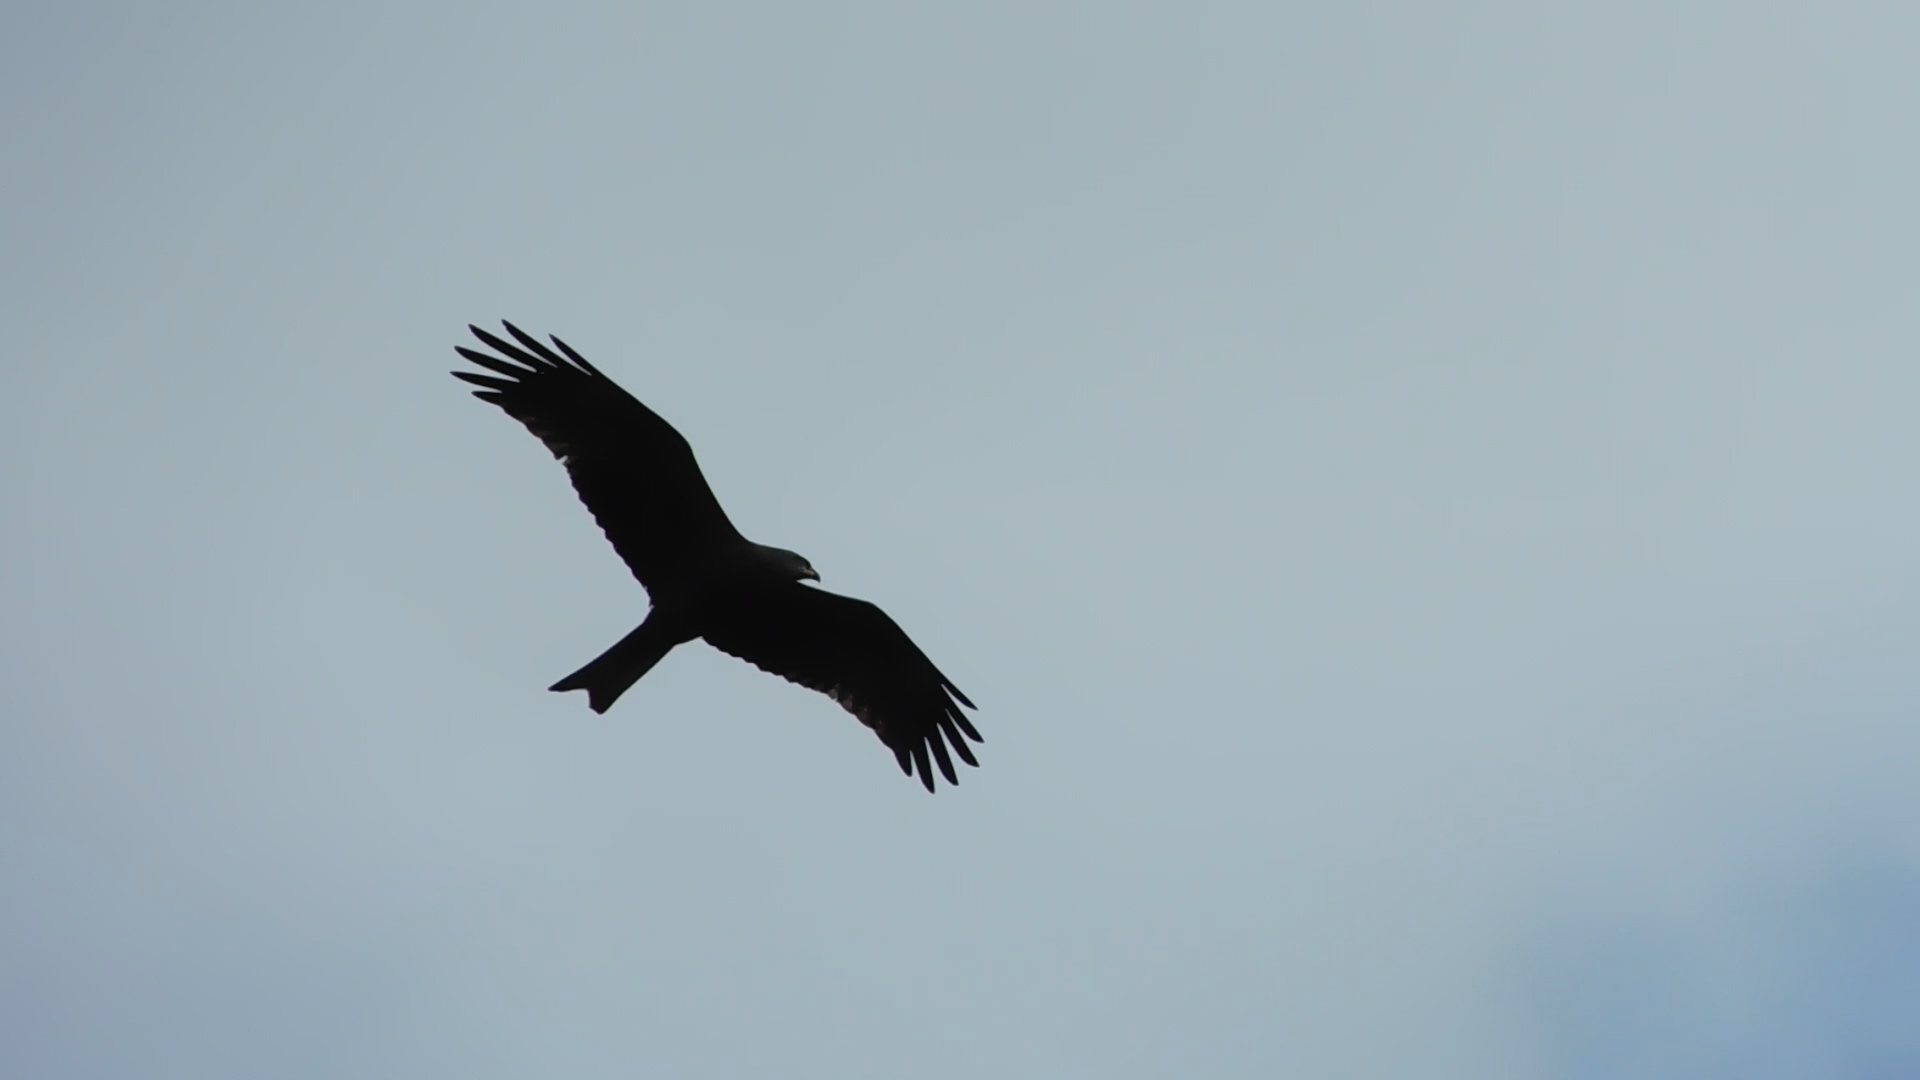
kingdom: Animalia
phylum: Chordata
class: Aves
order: Accipitriformes
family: Accipitridae
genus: Milvus
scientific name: Milvus migrans
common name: Black kite
